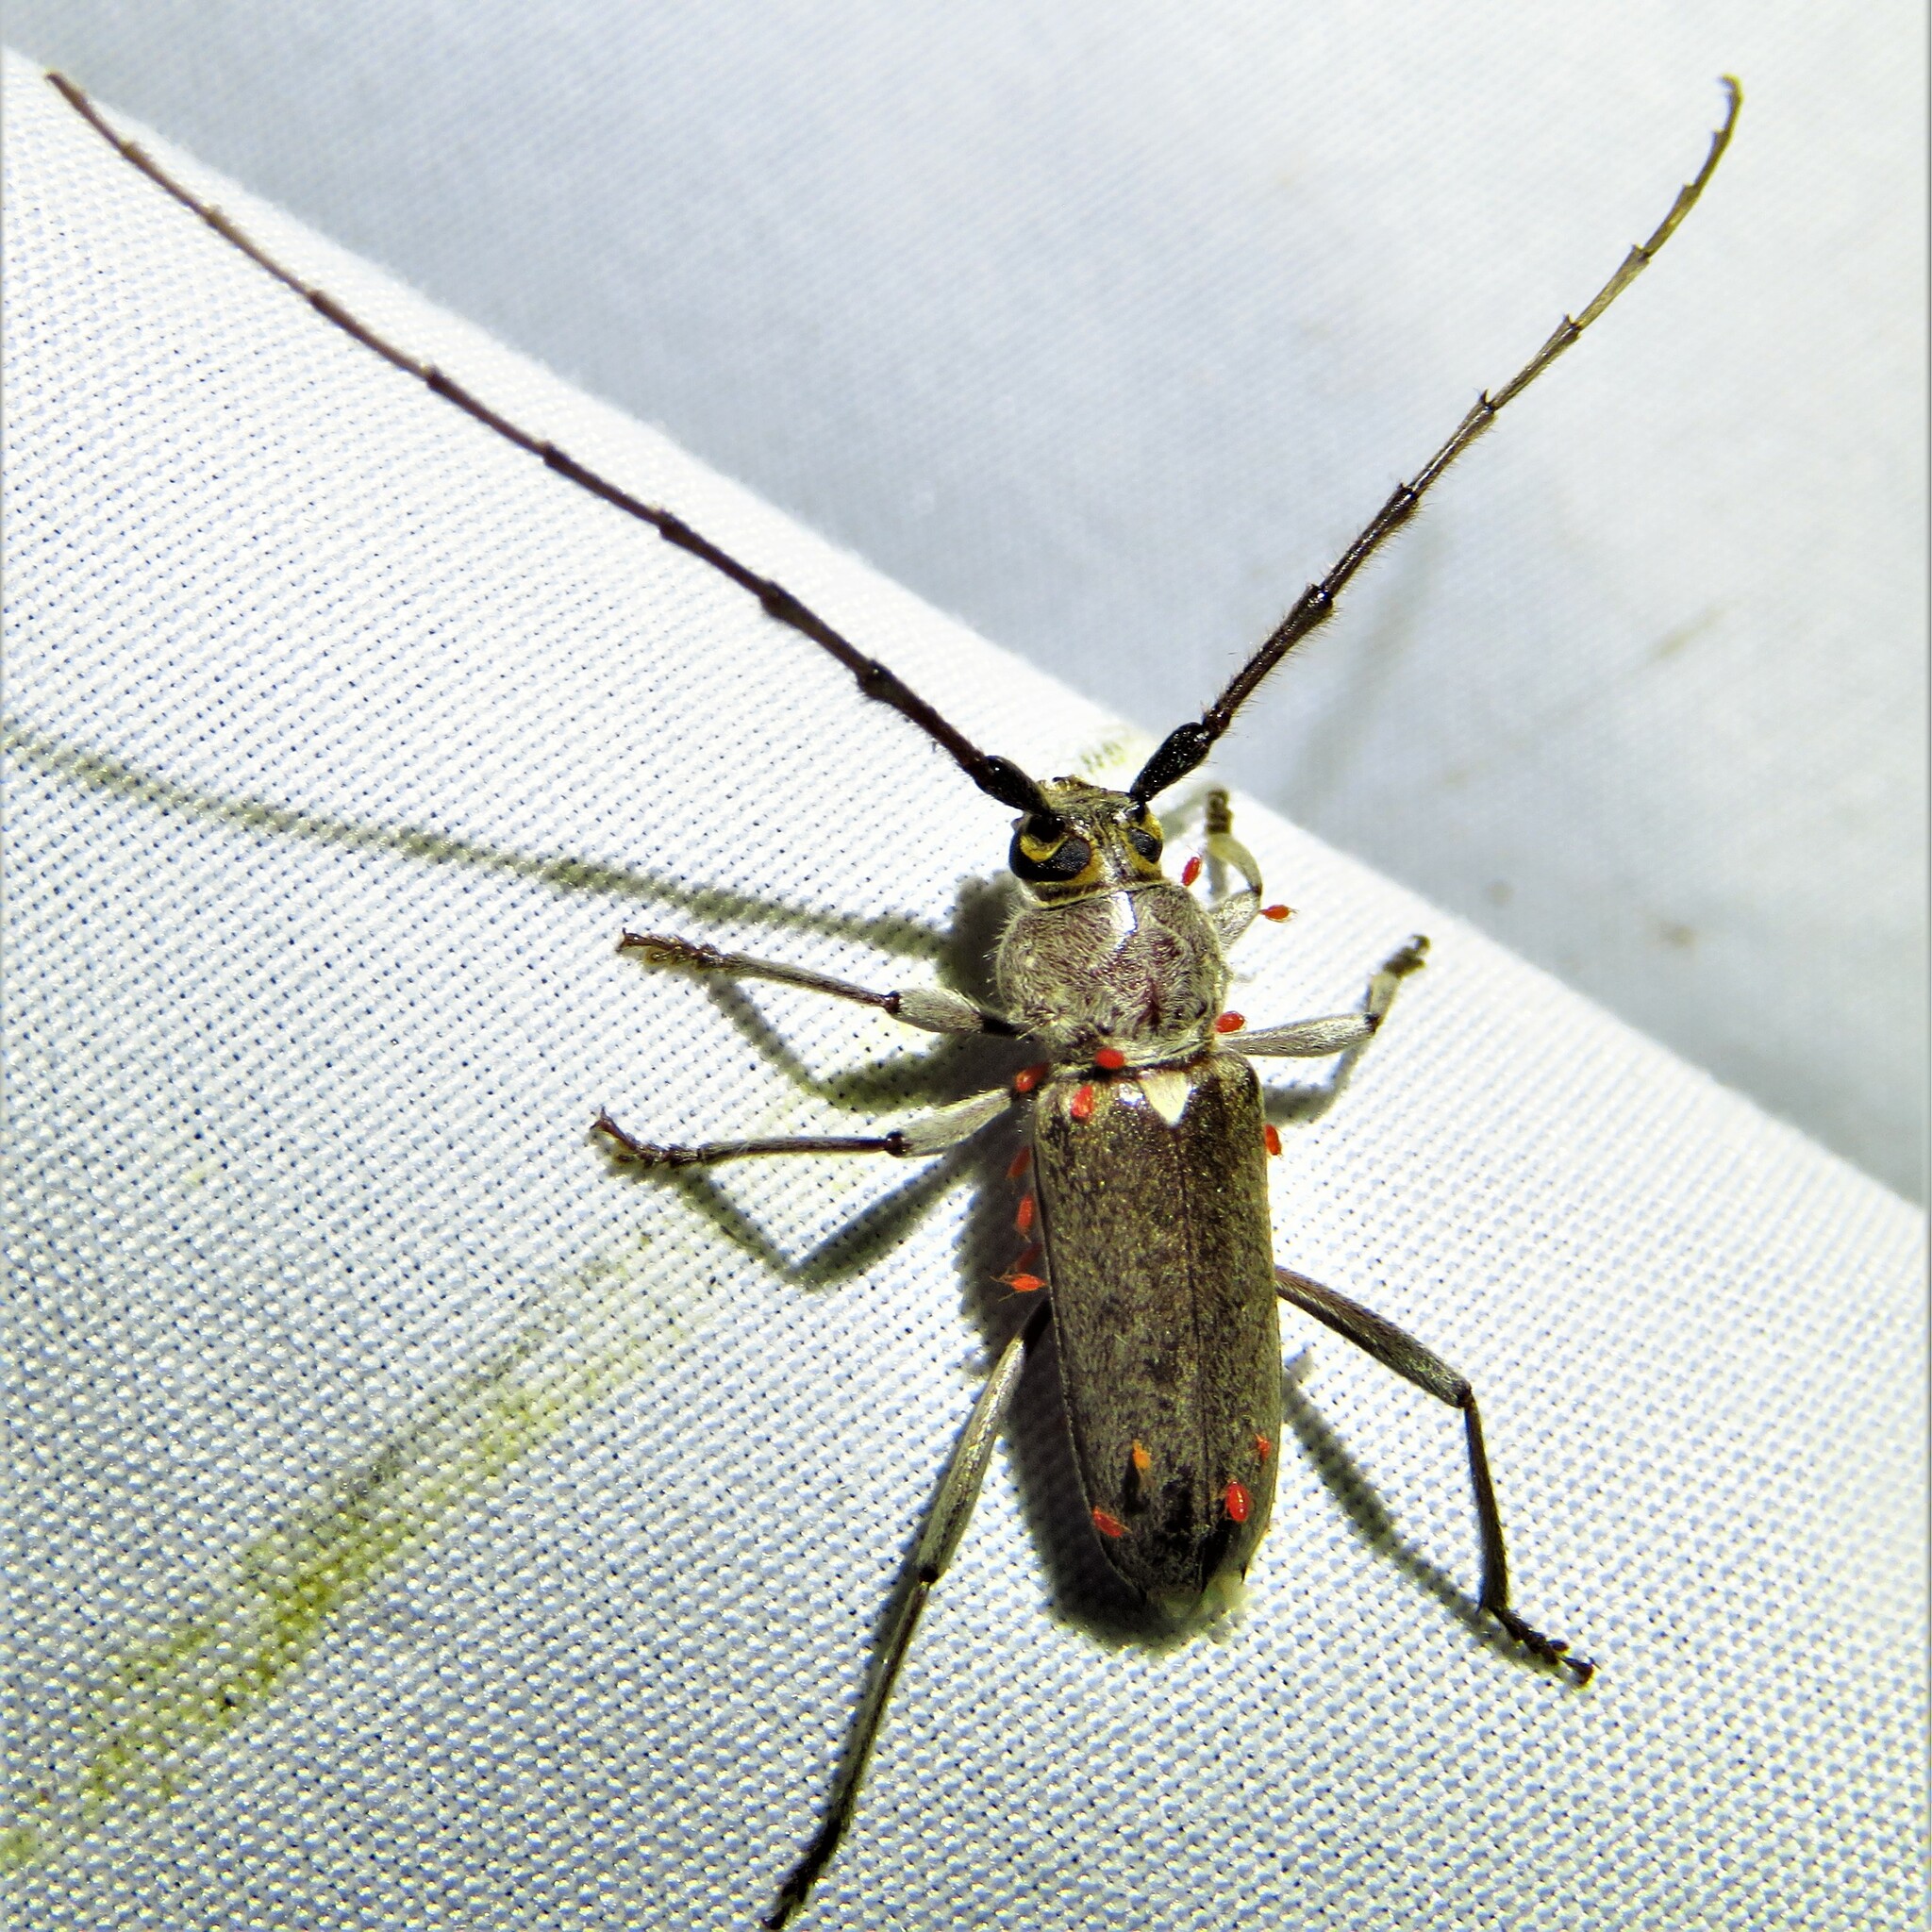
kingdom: Animalia
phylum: Arthropoda
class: Insecta
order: Coleoptera
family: Cerambycidae
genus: Gnaphalodes
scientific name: Gnaphalodes trachyderoides
